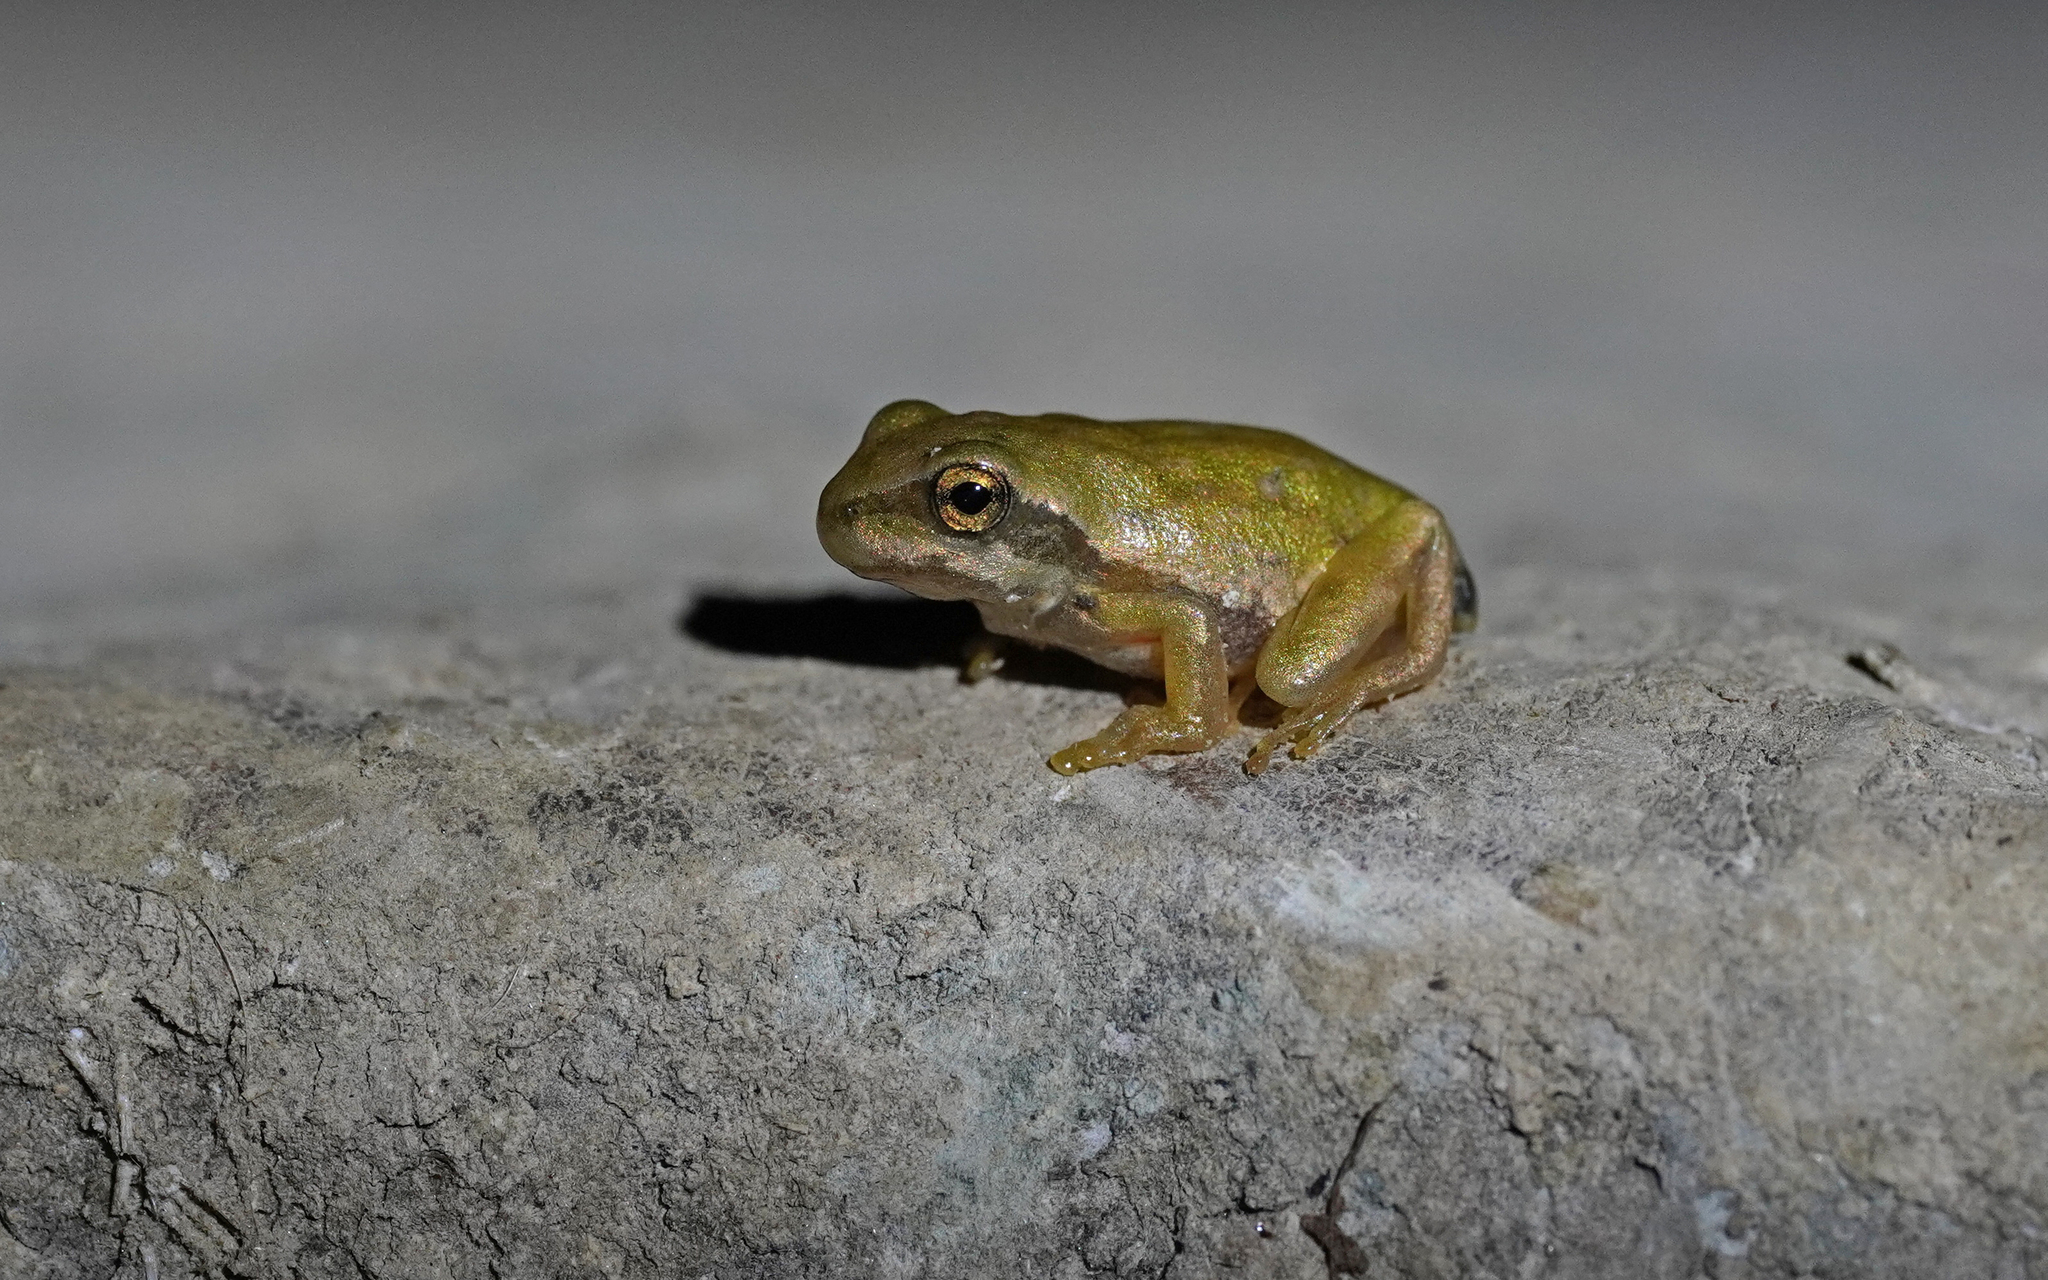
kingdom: Animalia
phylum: Chordata
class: Amphibia
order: Anura
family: Hylidae
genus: Hyla
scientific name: Hyla sarda
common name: Sardinian tree frog
